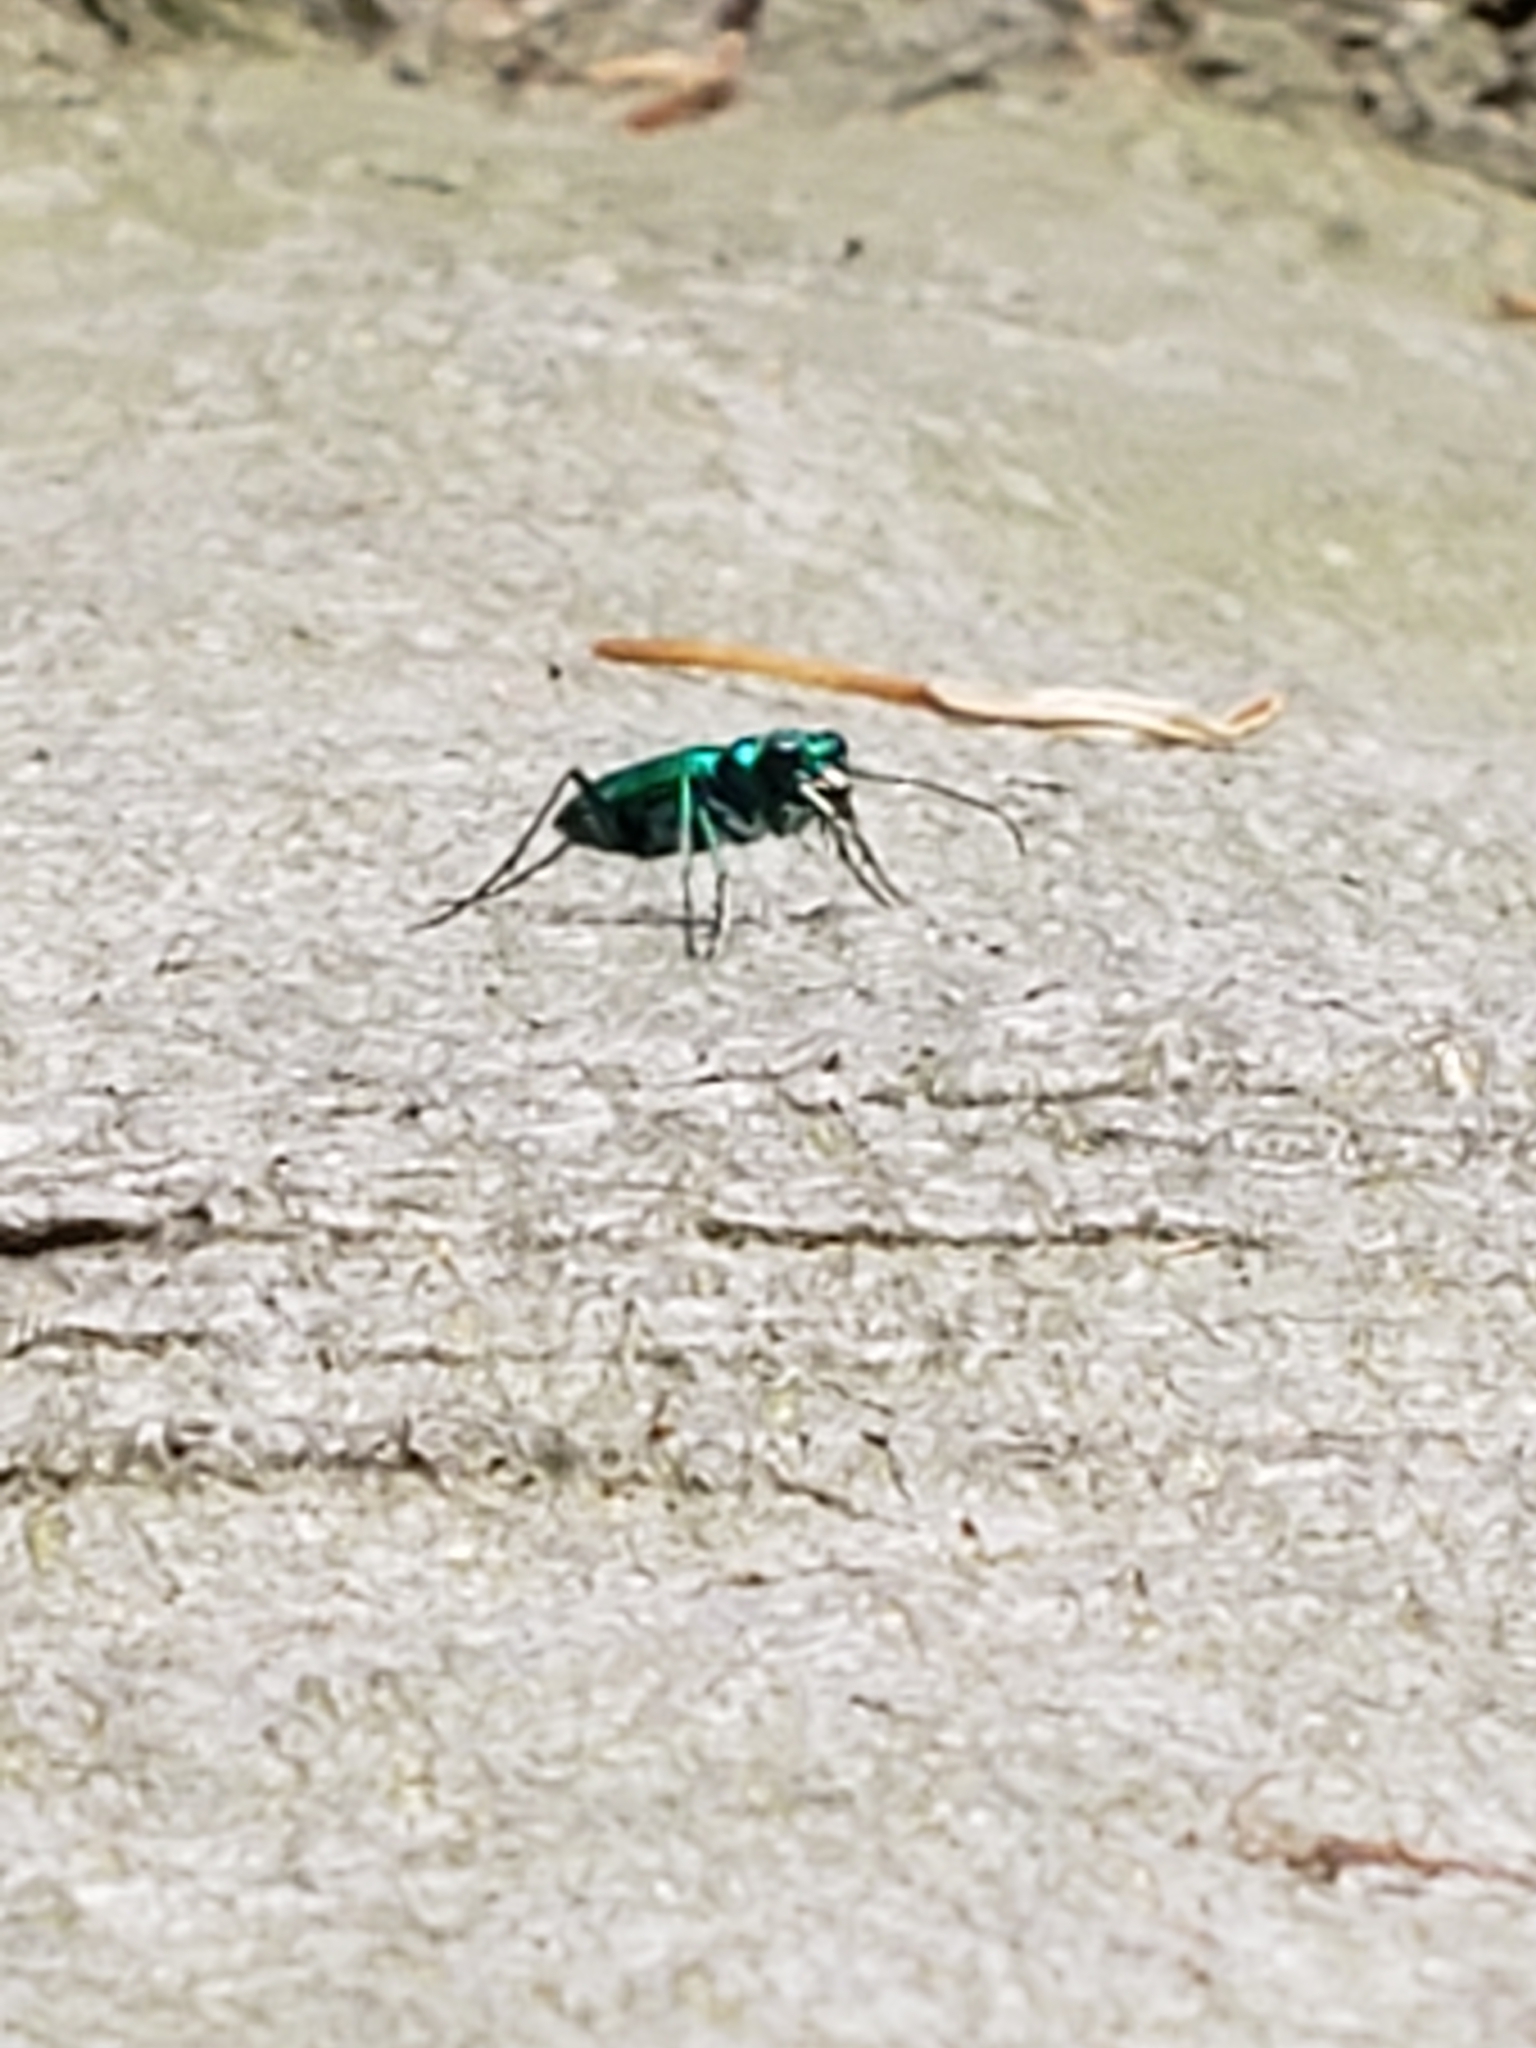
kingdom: Animalia
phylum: Arthropoda
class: Insecta
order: Coleoptera
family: Carabidae
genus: Cicindela
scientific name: Cicindela sexguttata
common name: Six-spotted tiger beetle
